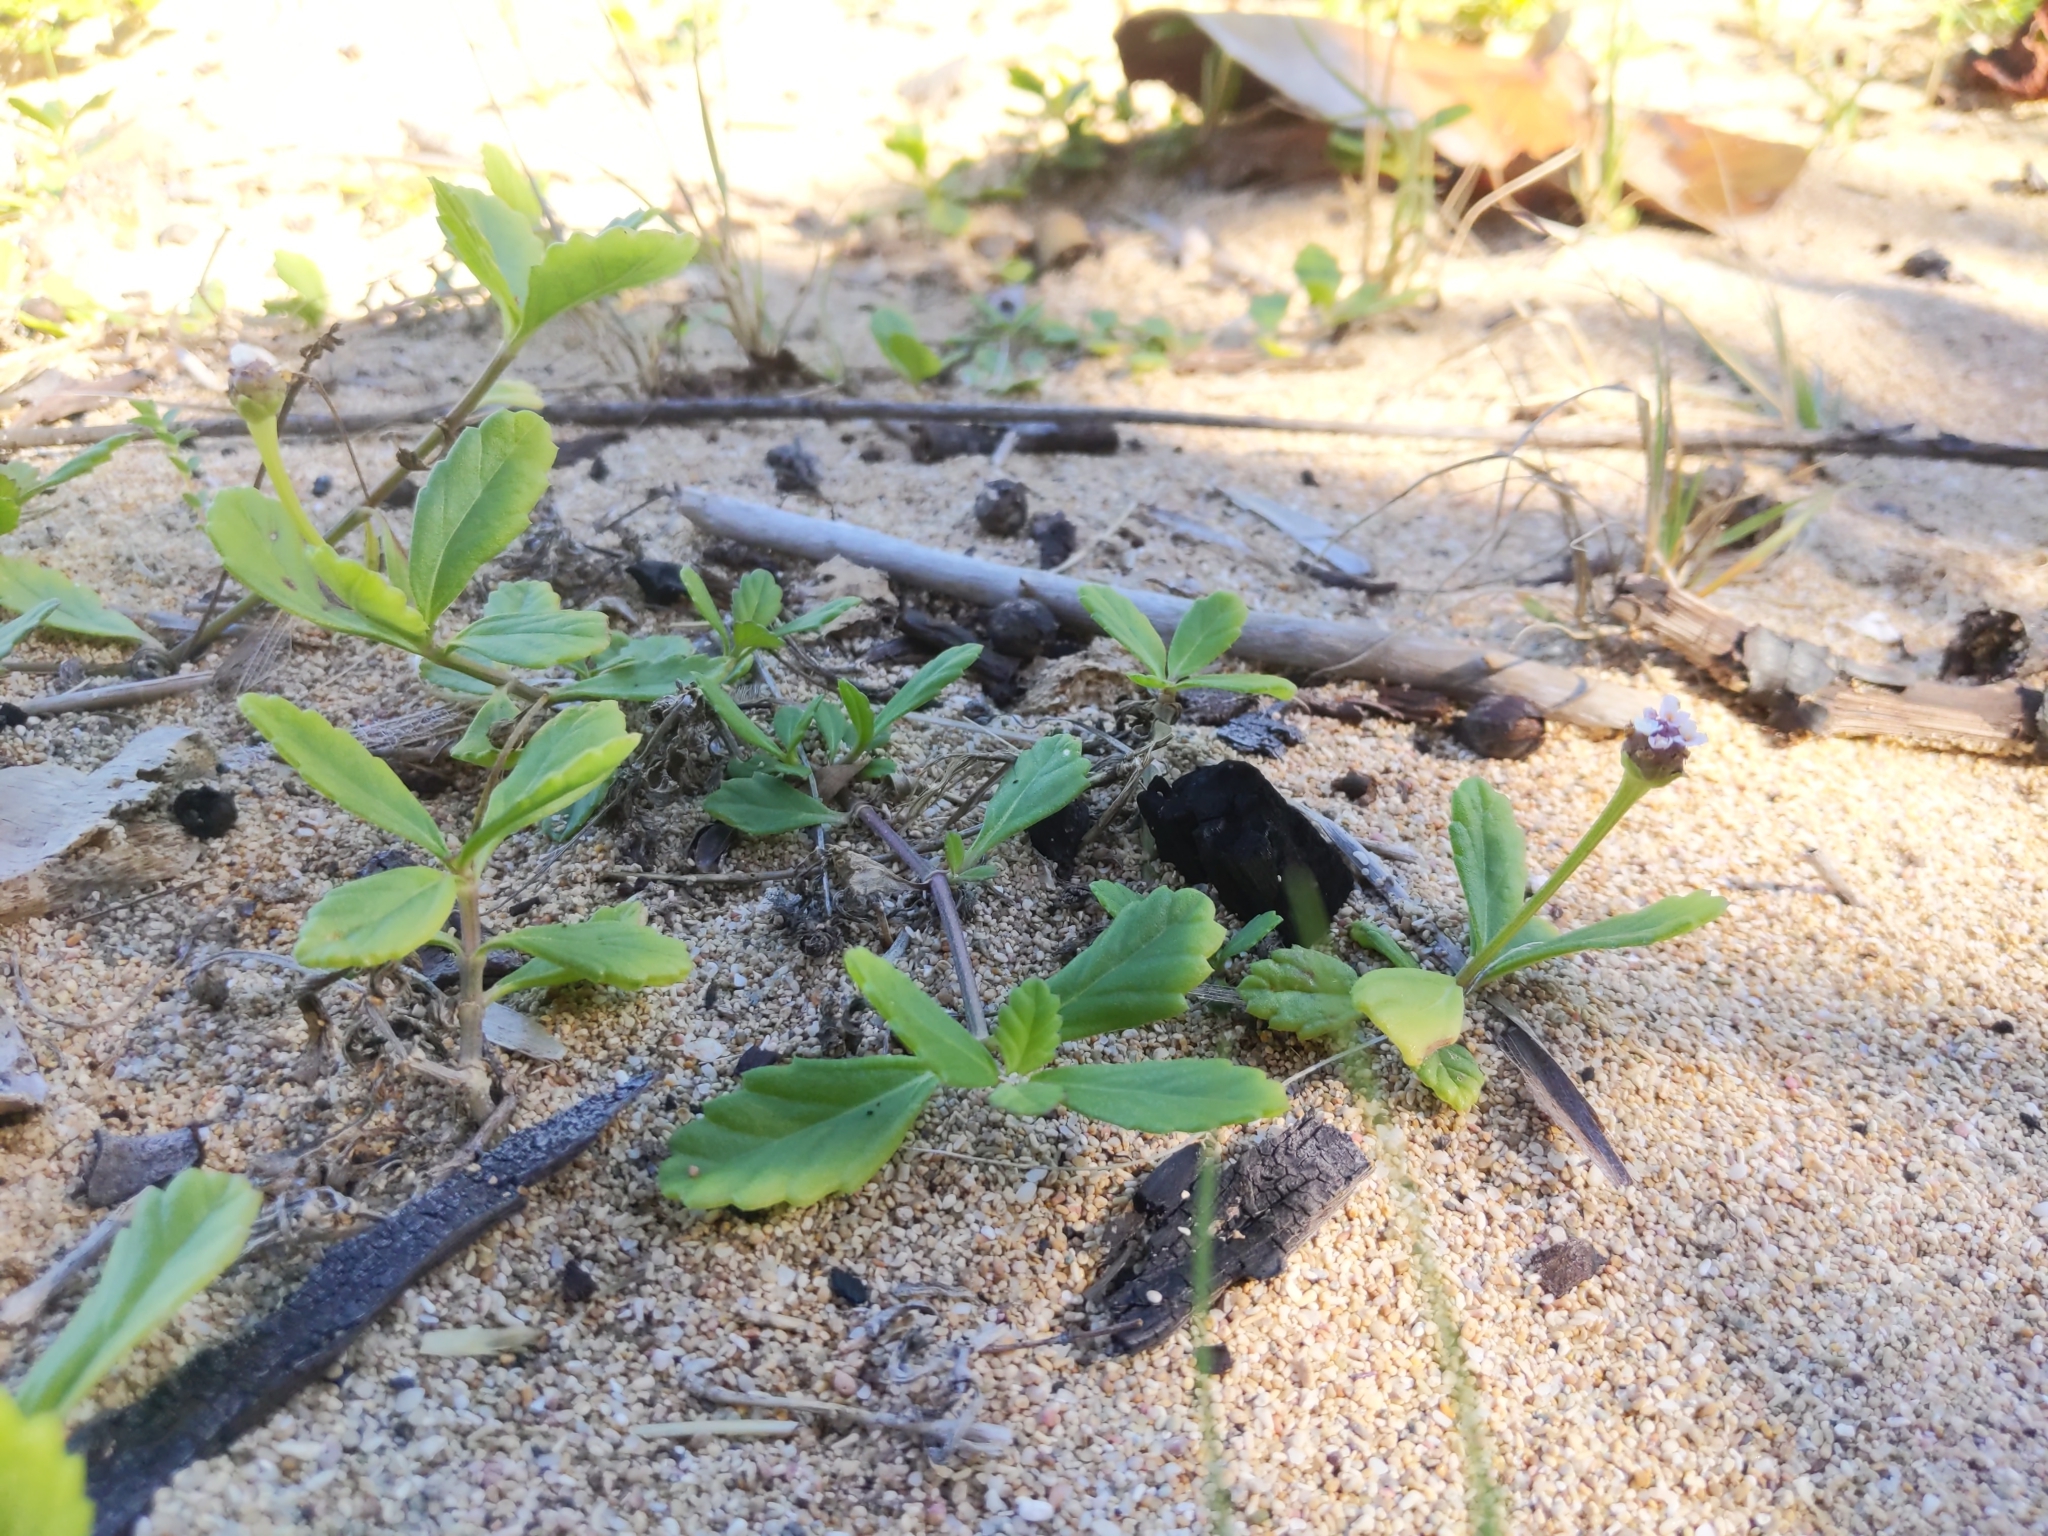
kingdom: Plantae
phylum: Tracheophyta
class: Magnoliopsida
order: Lamiales
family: Verbenaceae
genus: Phyla
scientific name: Phyla nodiflora
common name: Frogfruit
